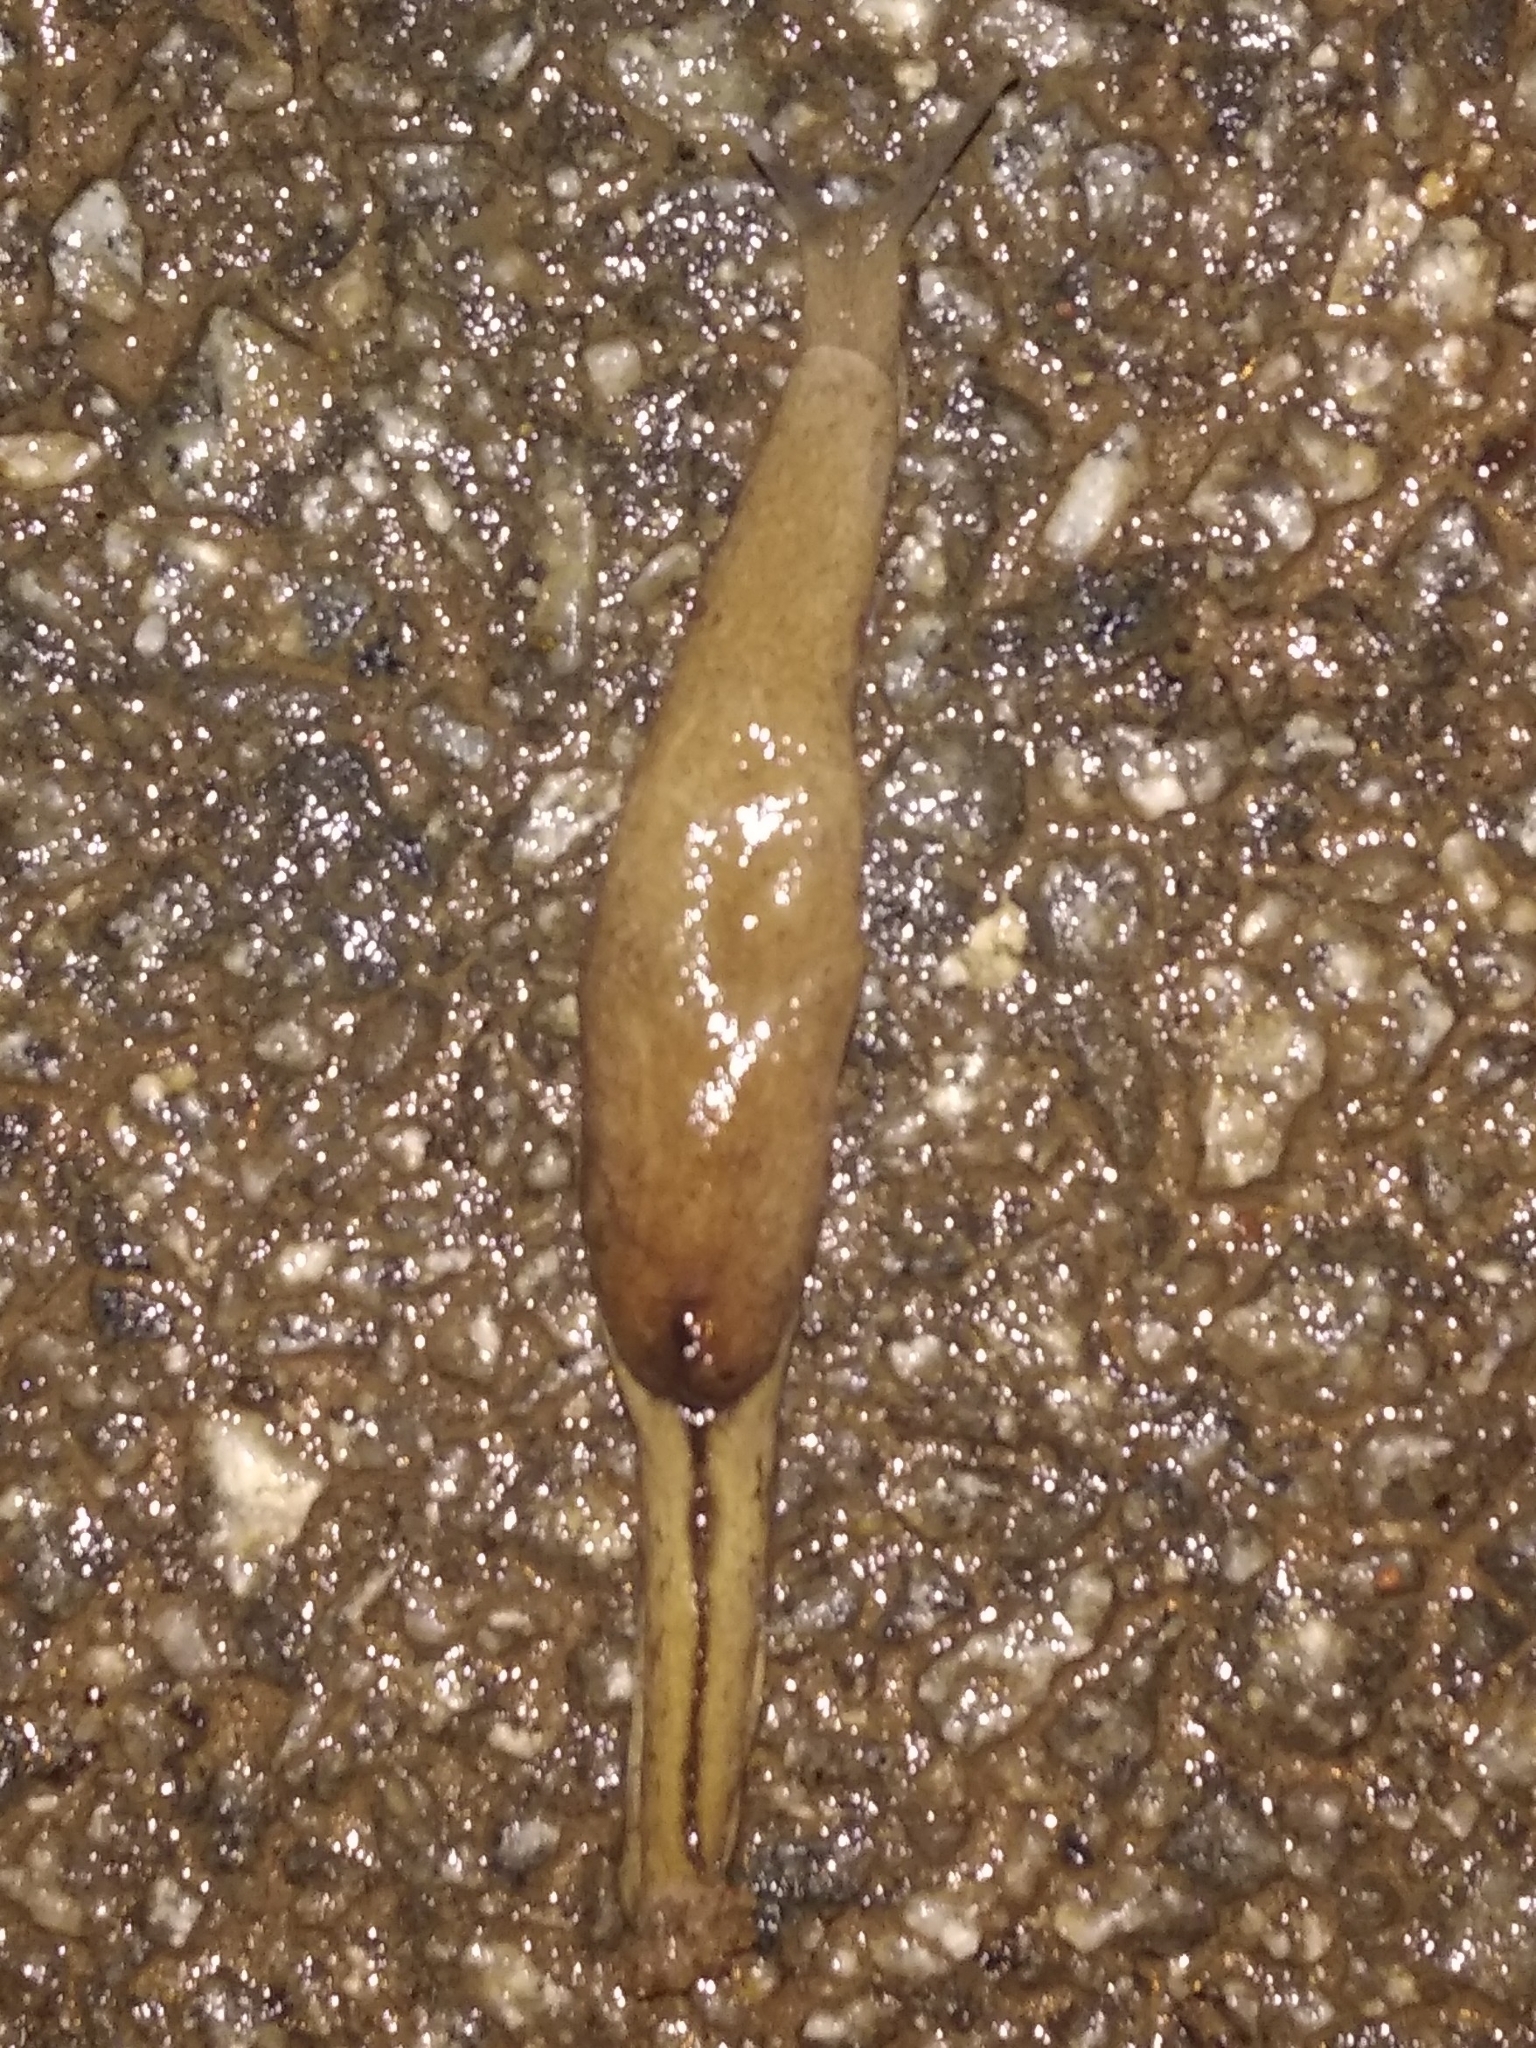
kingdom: Animalia
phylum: Mollusca
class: Gastropoda
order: Stylommatophora
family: Ariophantidae
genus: Mariaella
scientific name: Mariaella dussumieri
